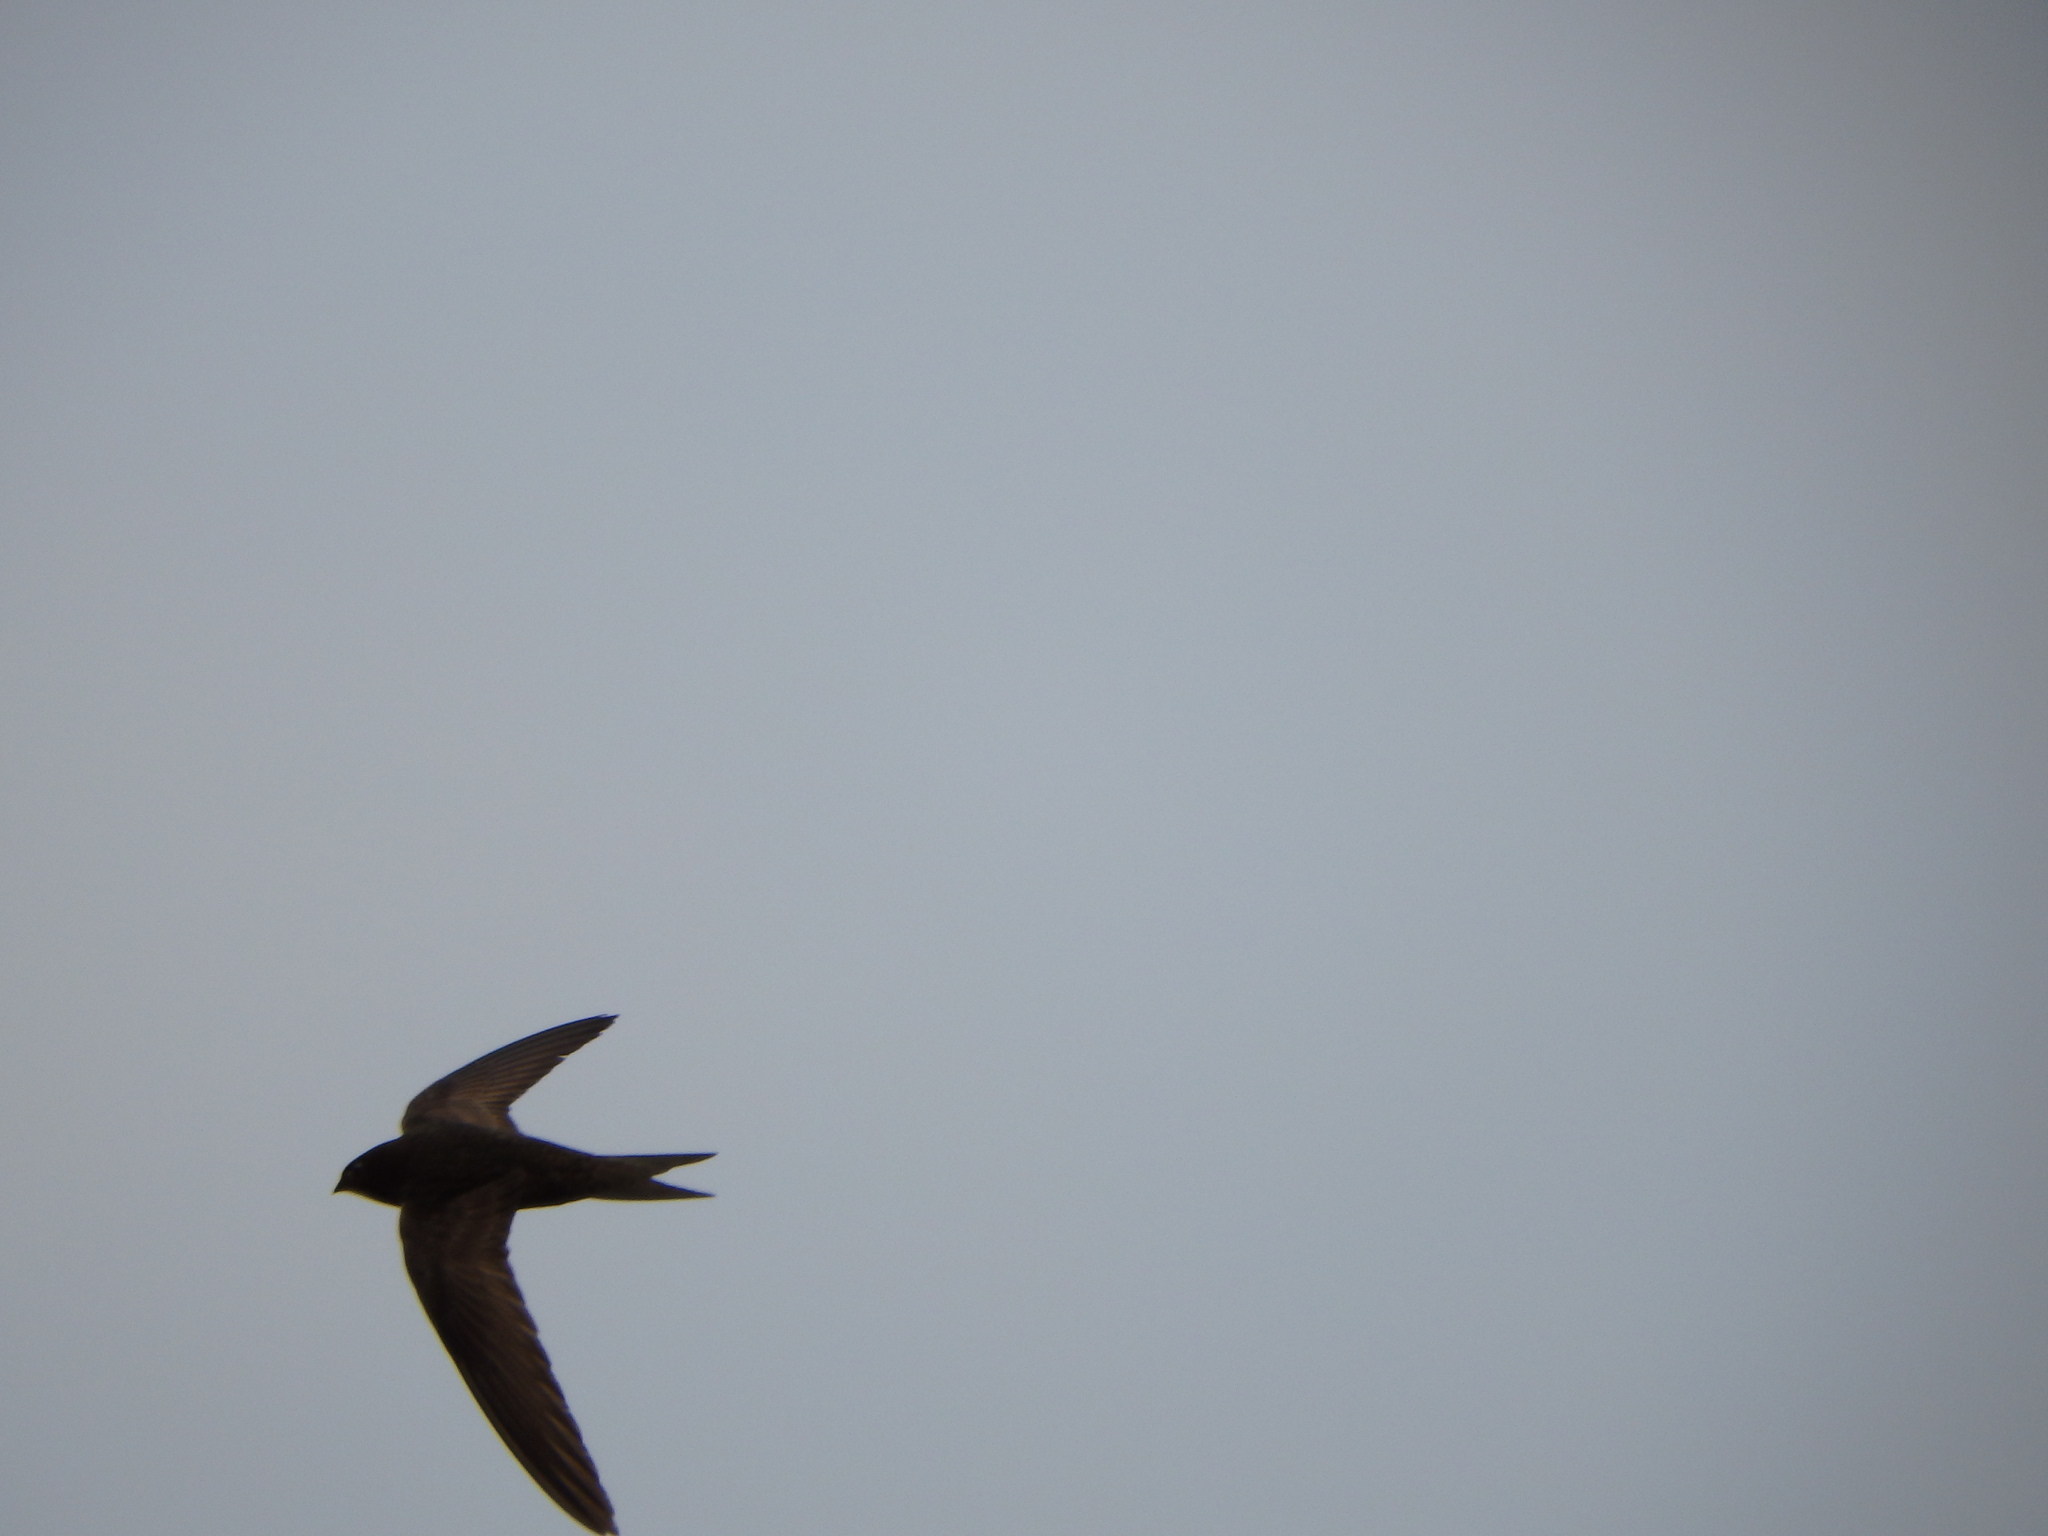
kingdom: Animalia
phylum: Chordata
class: Aves
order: Apodiformes
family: Apodidae
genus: Apus
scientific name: Apus apus
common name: Common swift
